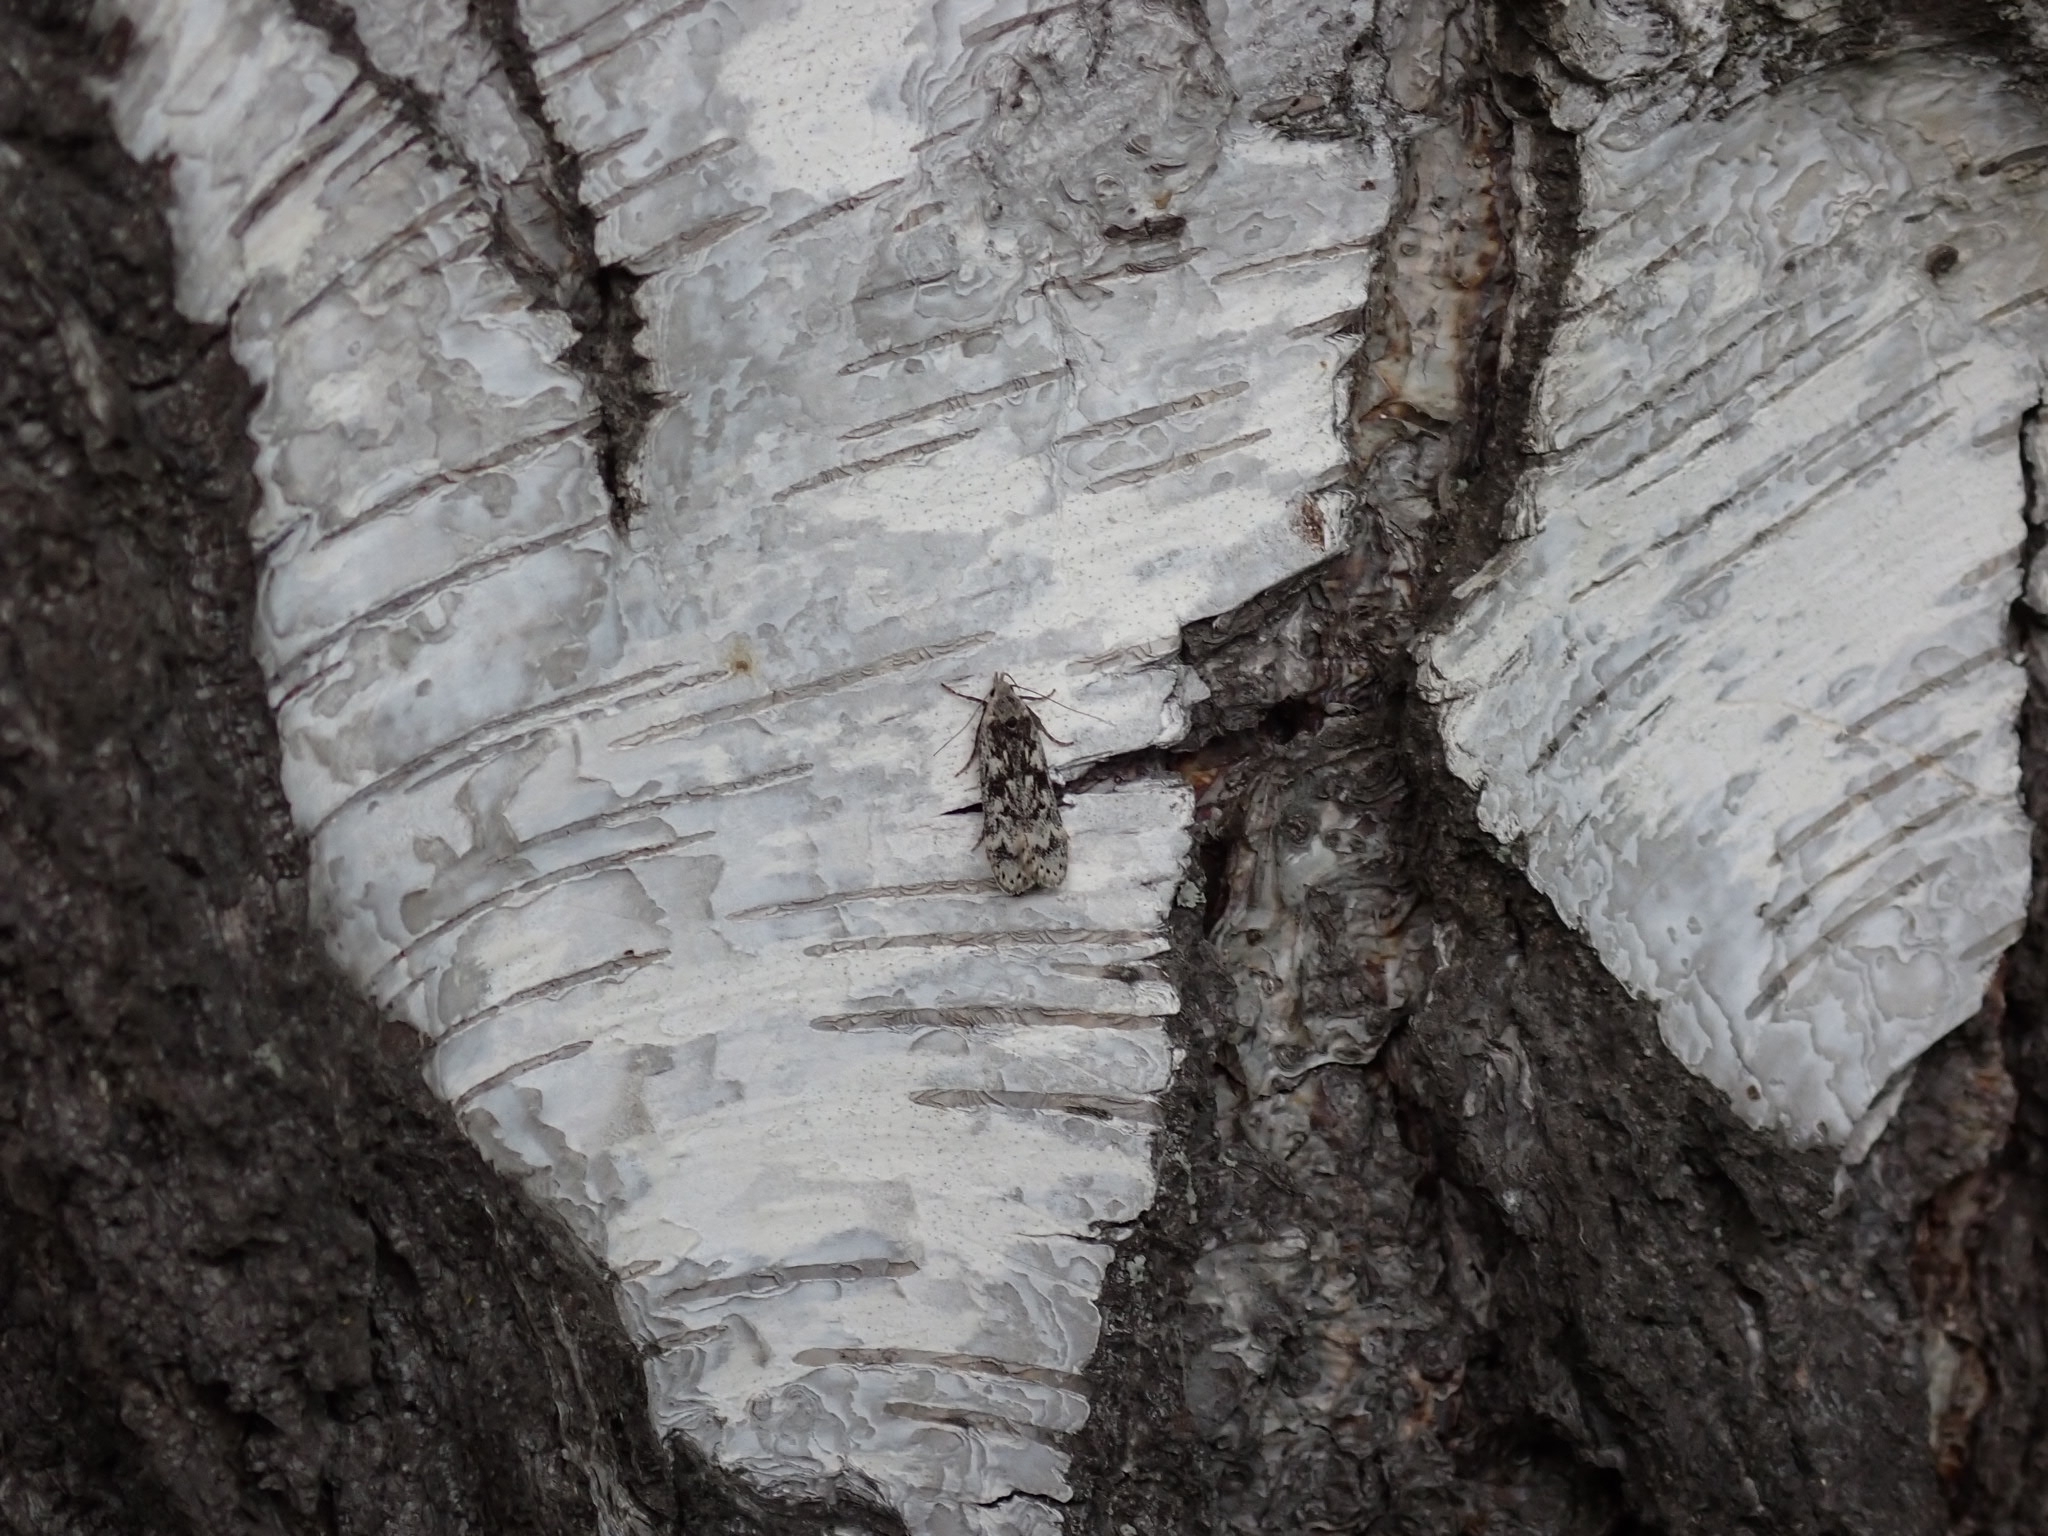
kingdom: Animalia
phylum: Arthropoda
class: Insecta
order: Lepidoptera
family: Gelechiidae
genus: Anacampsis
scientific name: Anacampsis blattariella
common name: Birch sober
